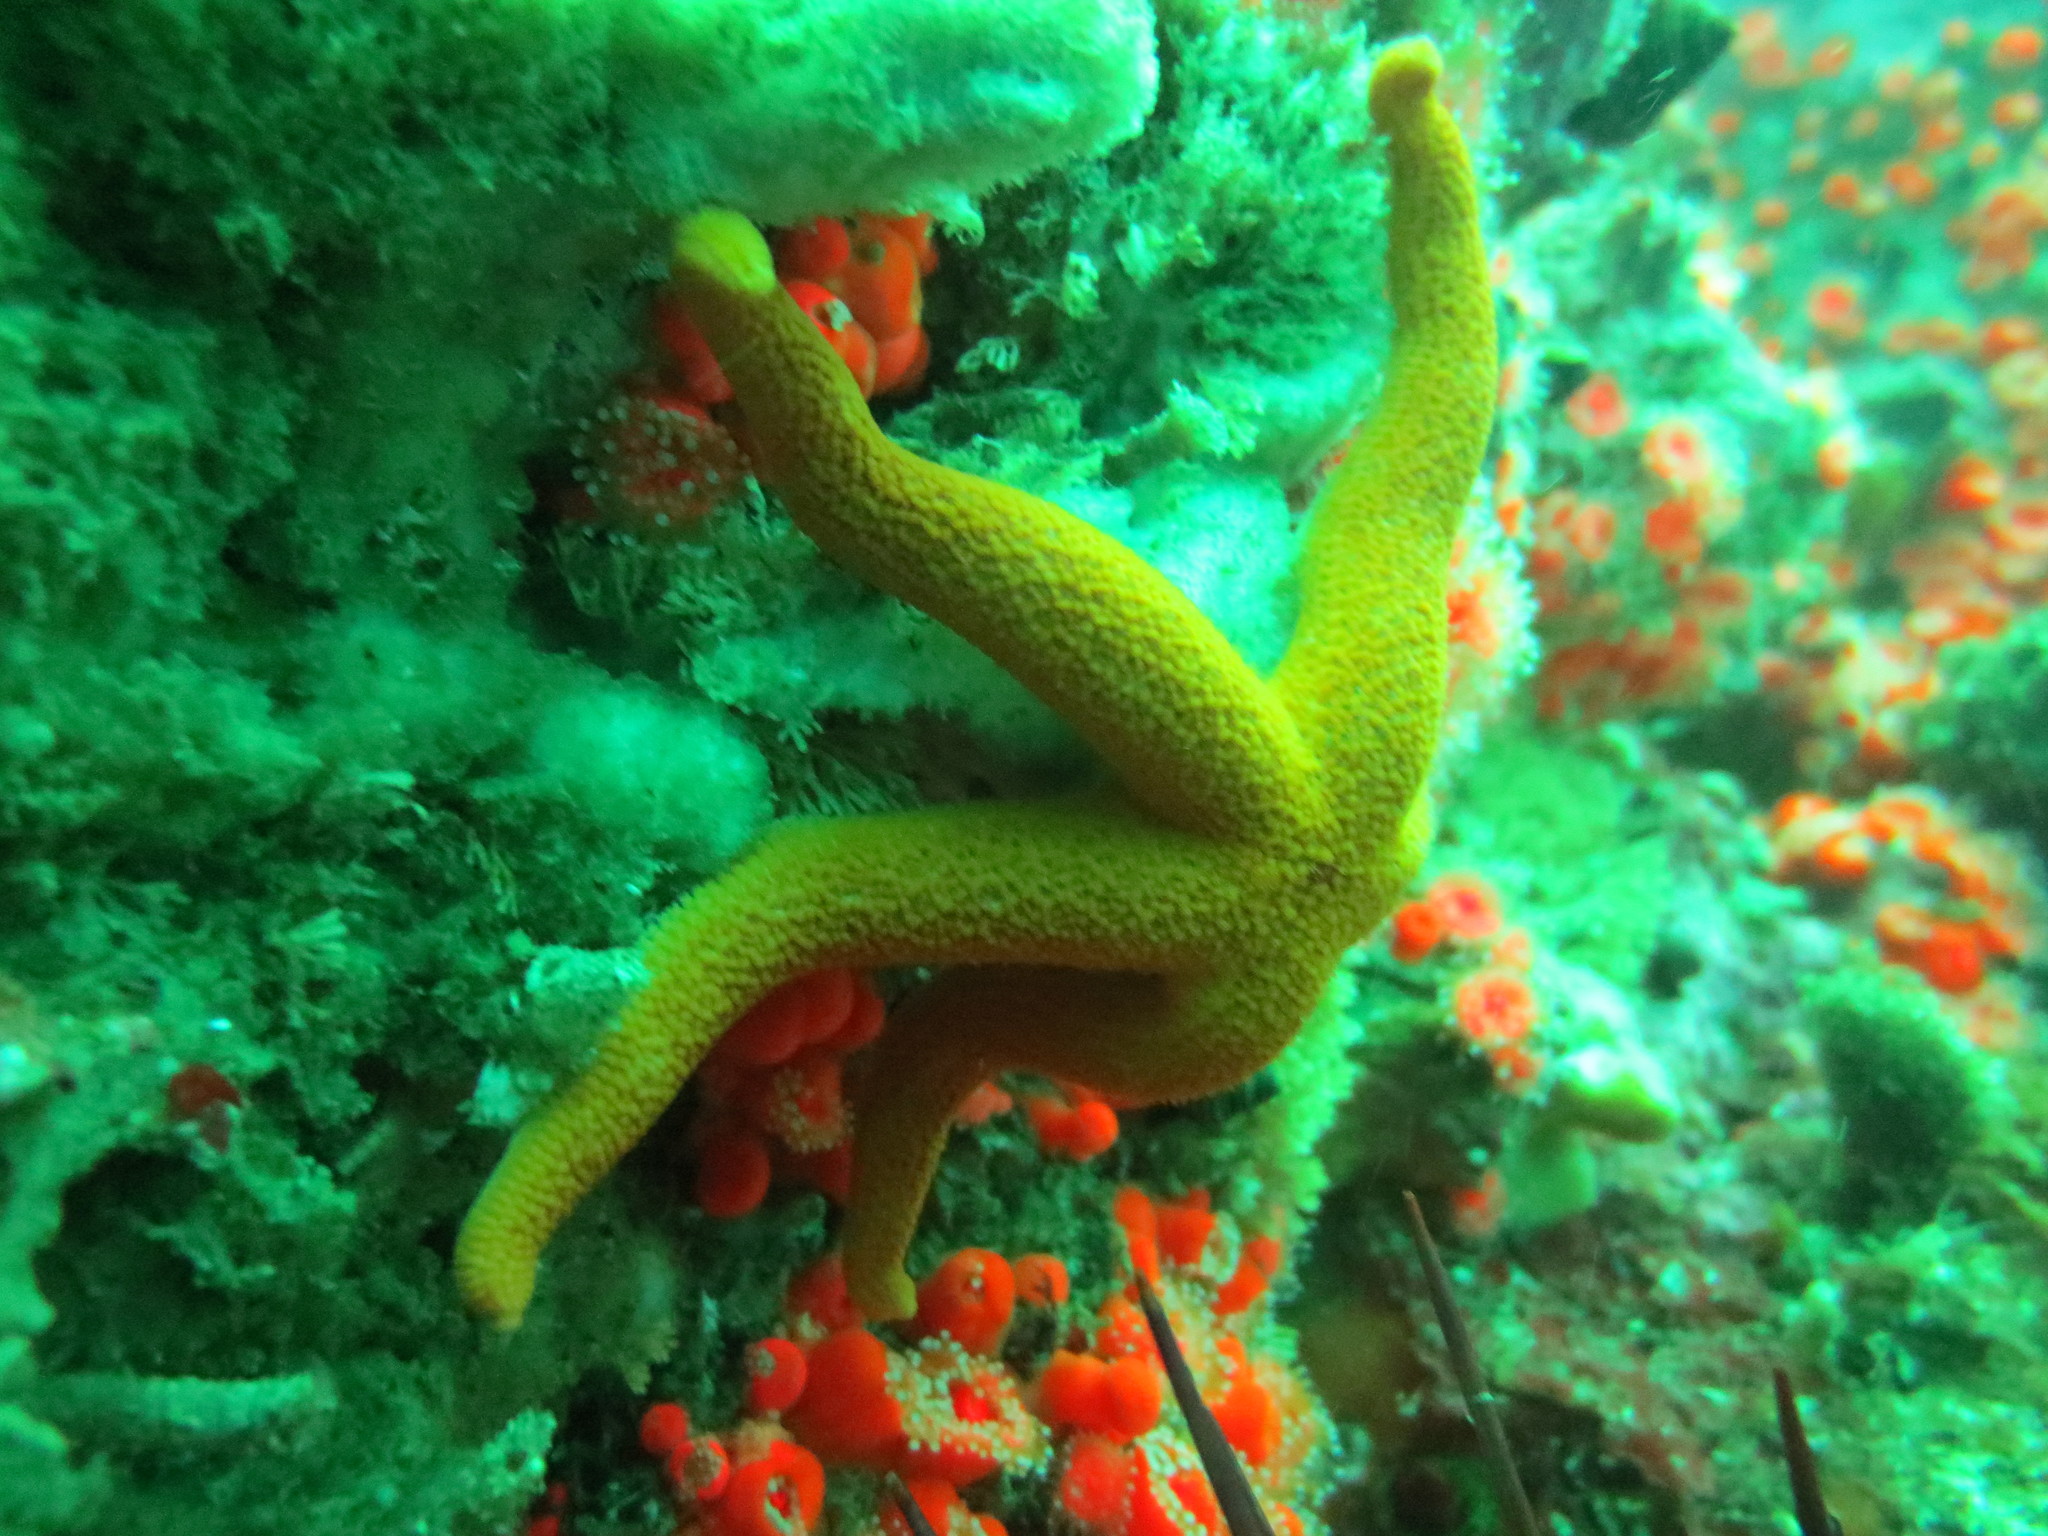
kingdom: Animalia
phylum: Echinodermata
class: Asteroidea
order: Spinulosida
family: Echinasteridae
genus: Henricia
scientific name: Henricia leviuscula
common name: Pacific blood star
